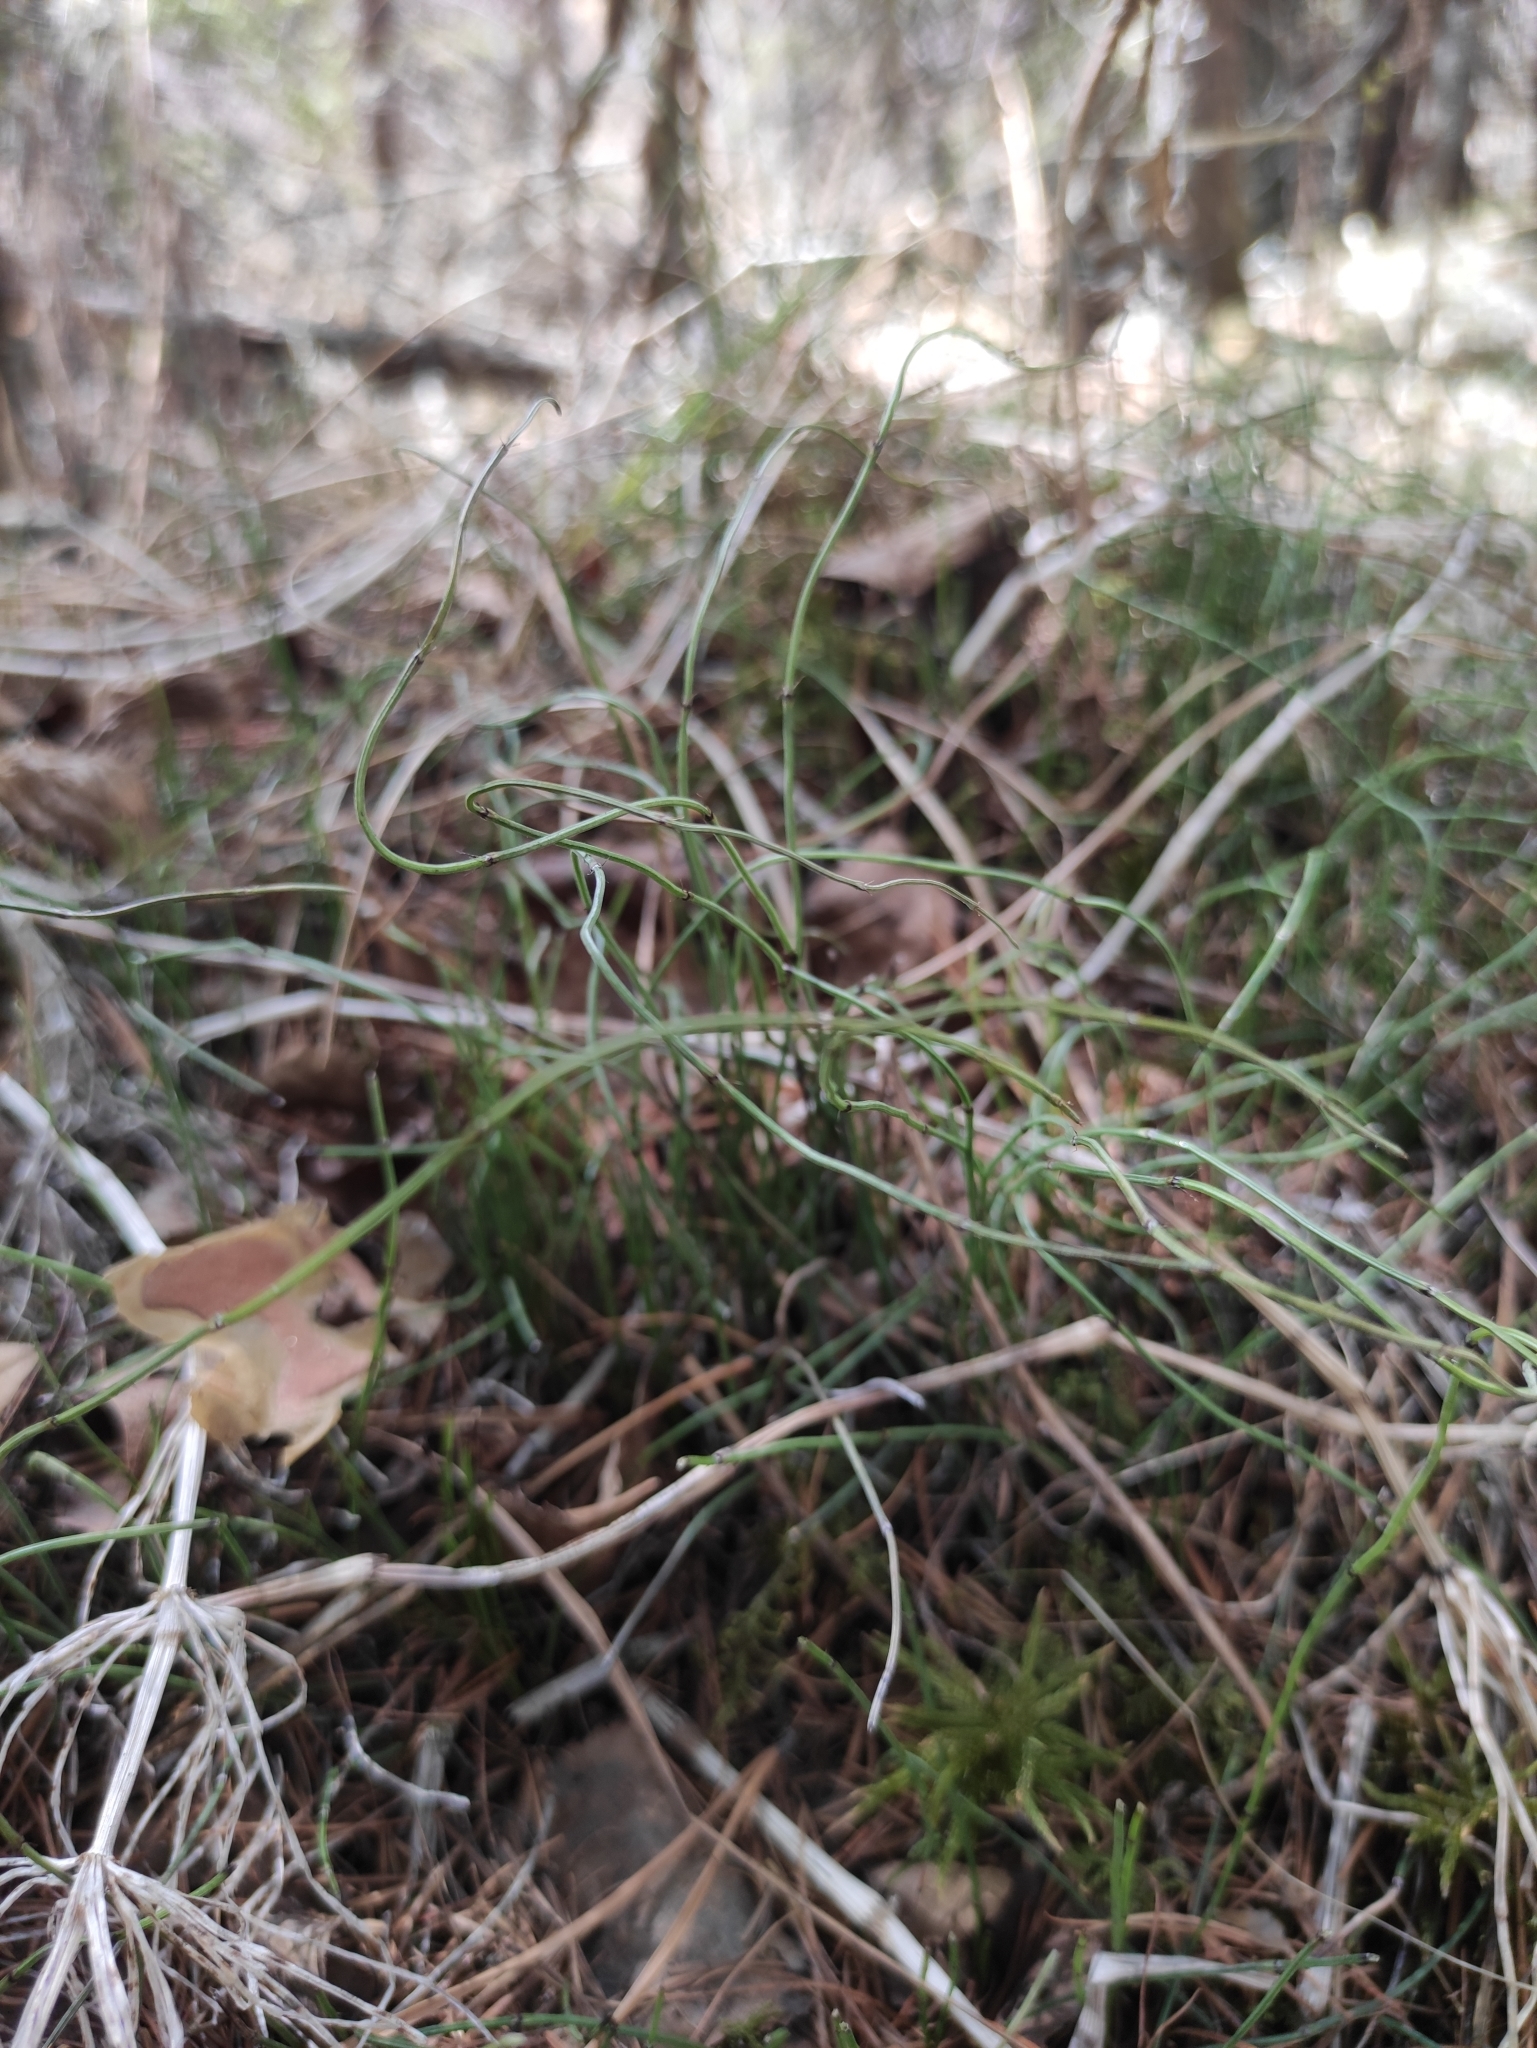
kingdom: Plantae
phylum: Tracheophyta
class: Polypodiopsida
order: Equisetales
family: Equisetaceae
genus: Equisetum
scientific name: Equisetum scirpoides
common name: Delicate horsetail
